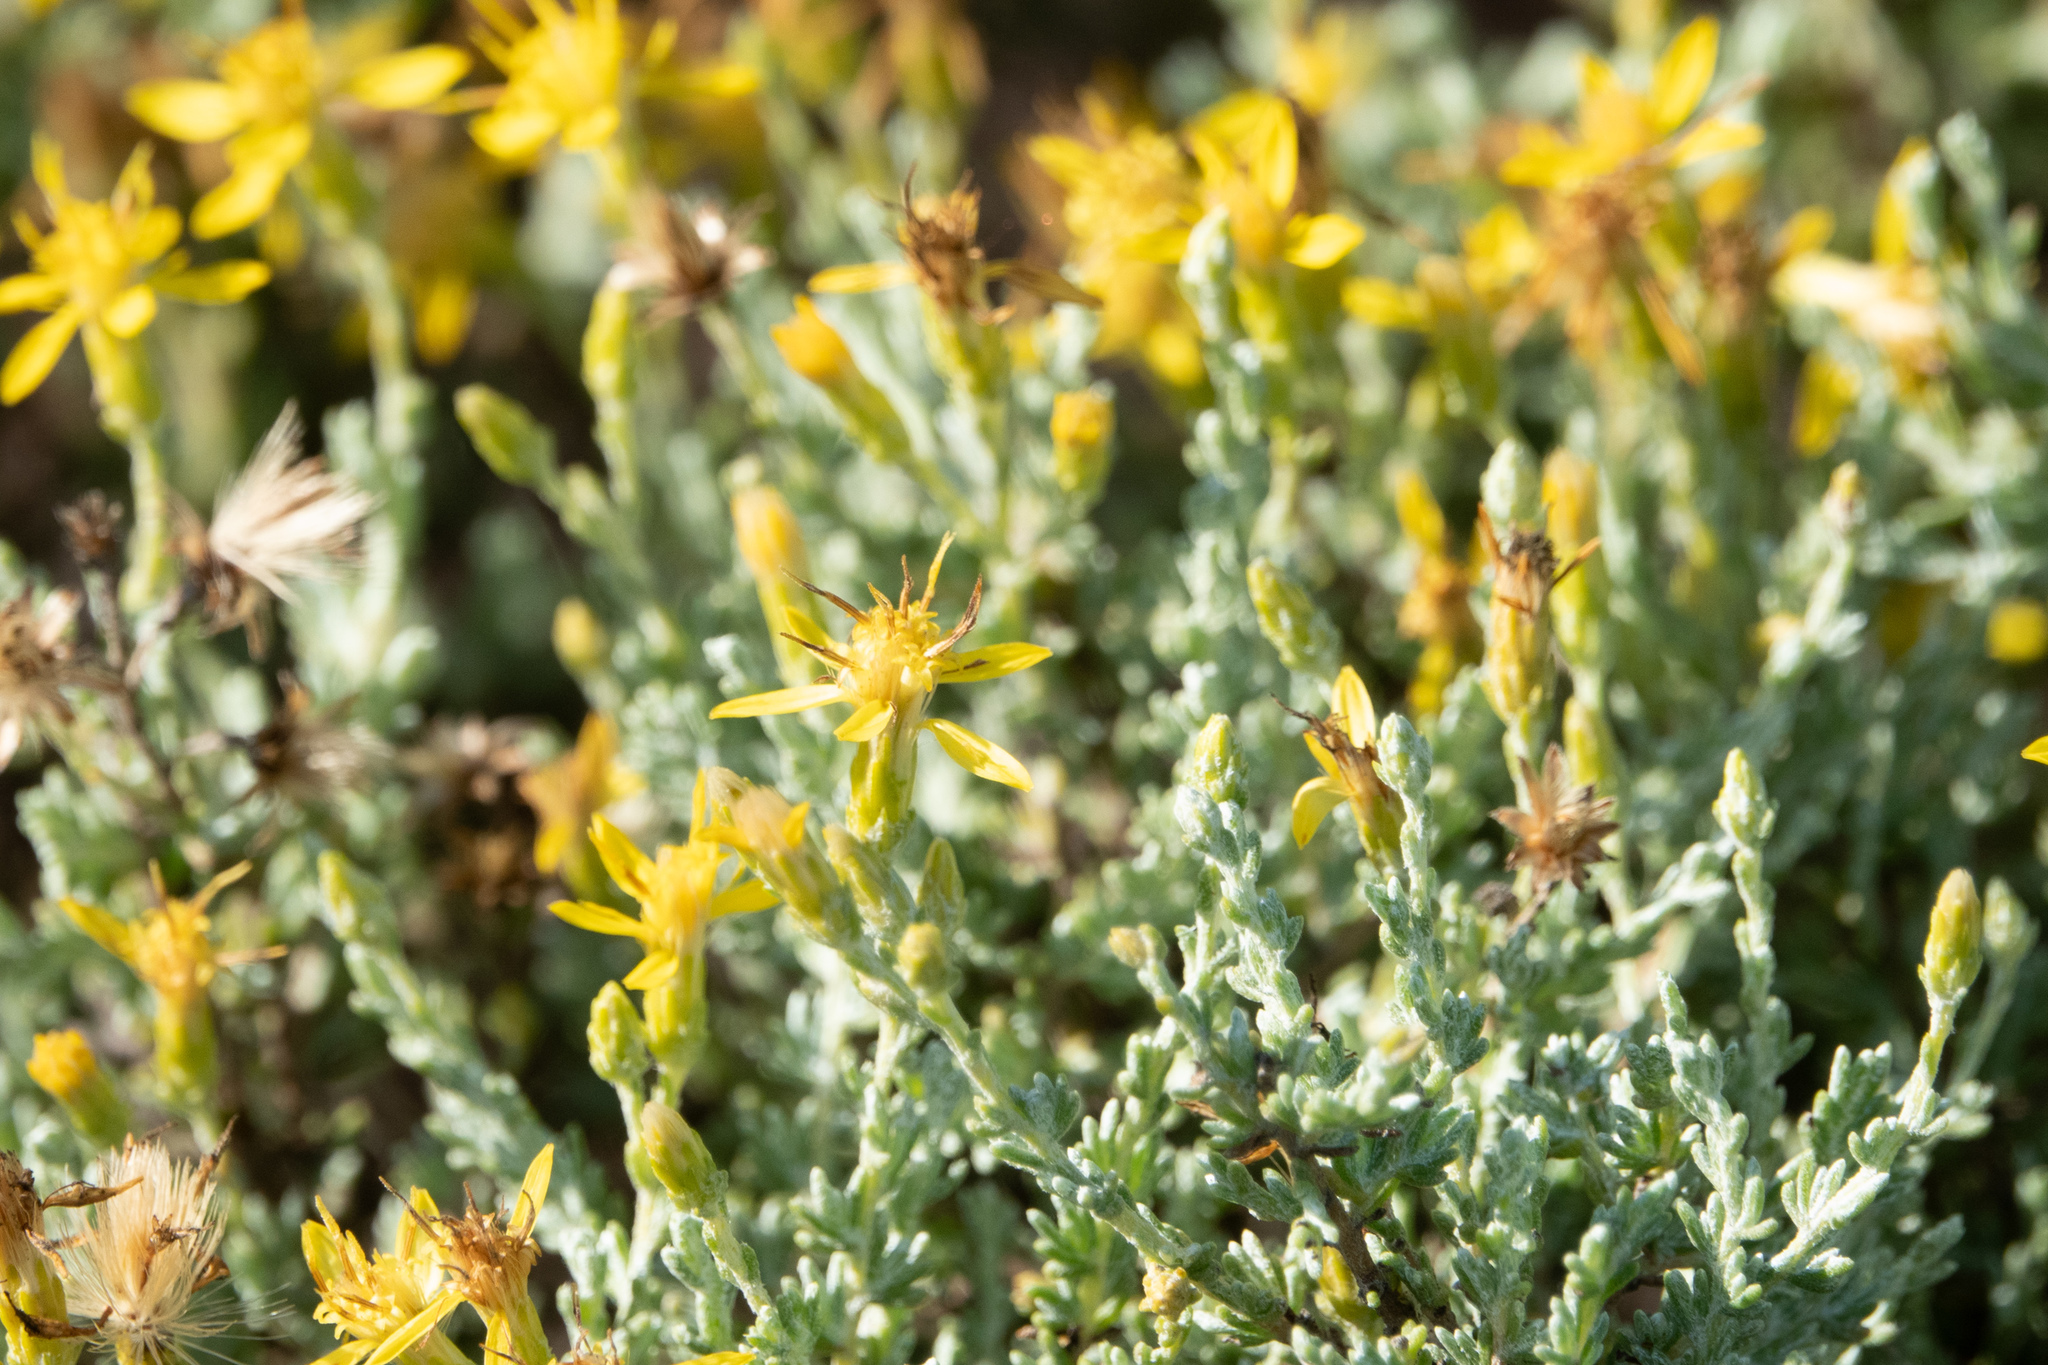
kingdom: Plantae
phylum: Tracheophyta
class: Magnoliopsida
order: Asterales
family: Asteraceae
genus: Ericameria
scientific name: Ericameria ericoides
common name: California goldenbush
